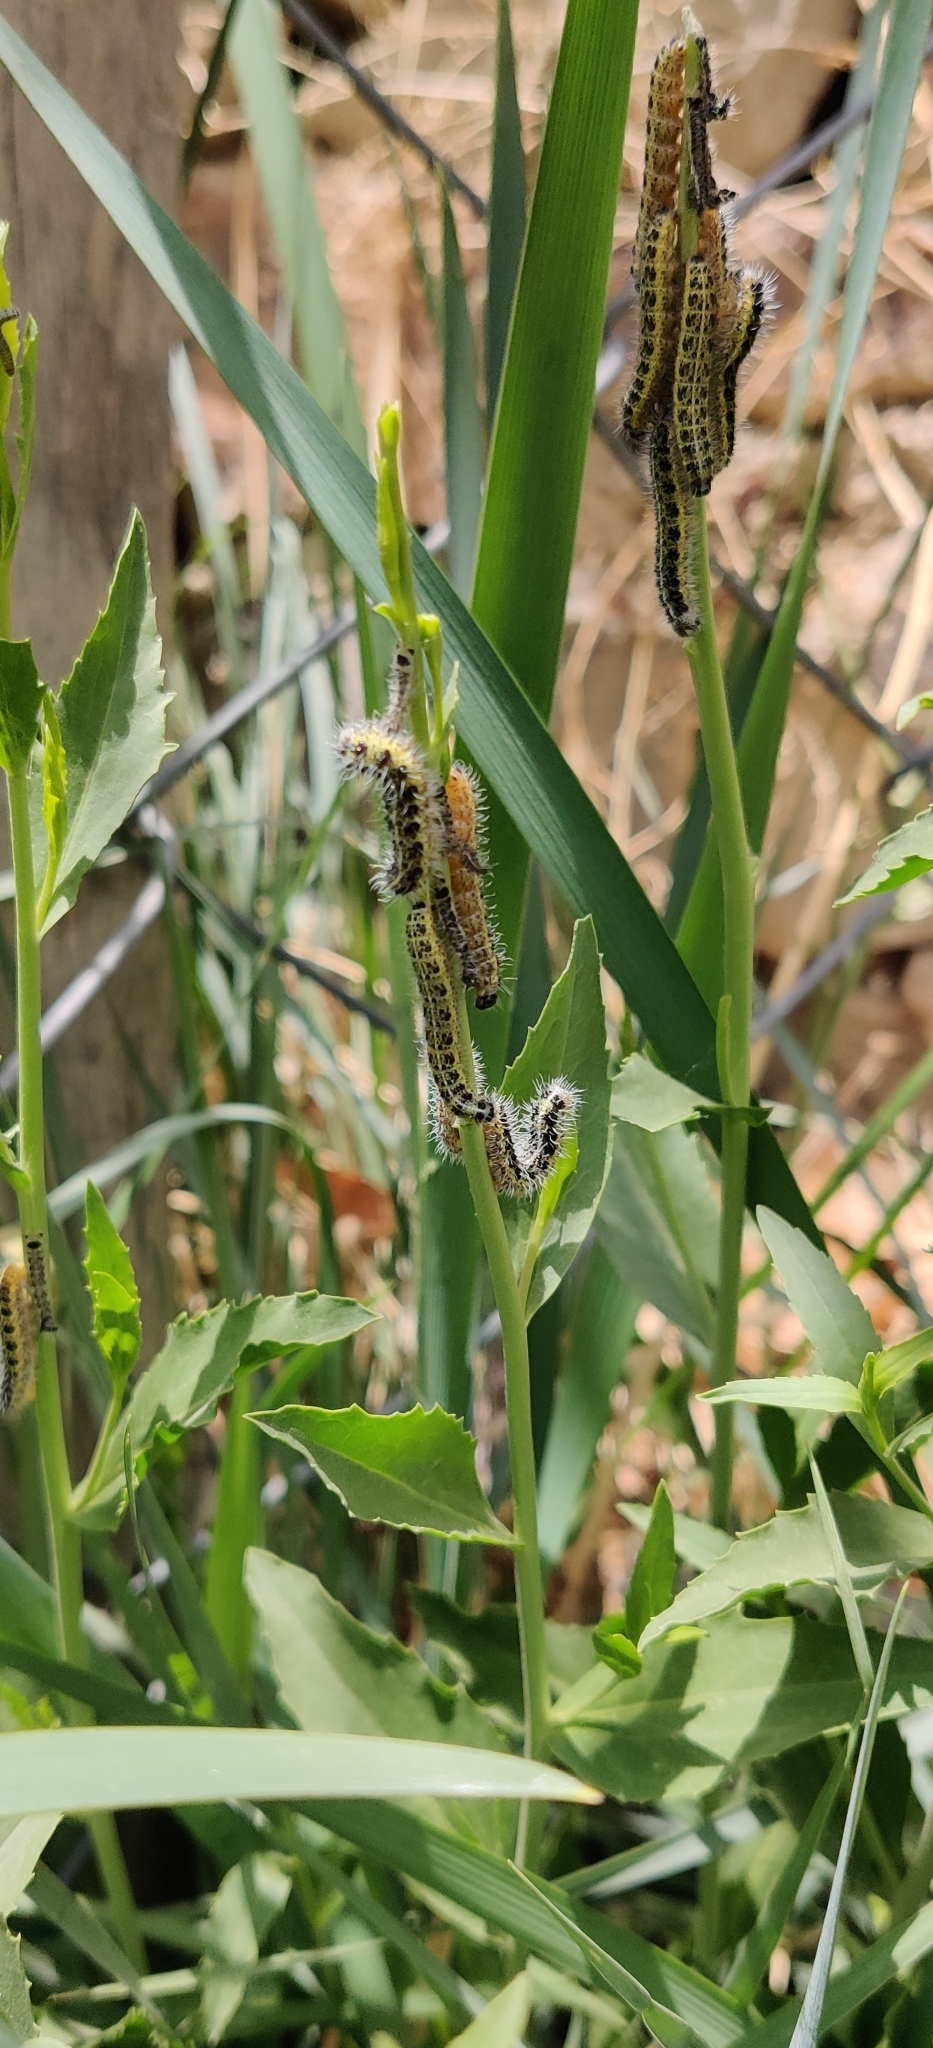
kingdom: Animalia
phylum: Arthropoda
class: Insecta
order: Lepidoptera
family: Pieridae
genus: Pieris
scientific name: Pieris brassicae
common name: Large white
